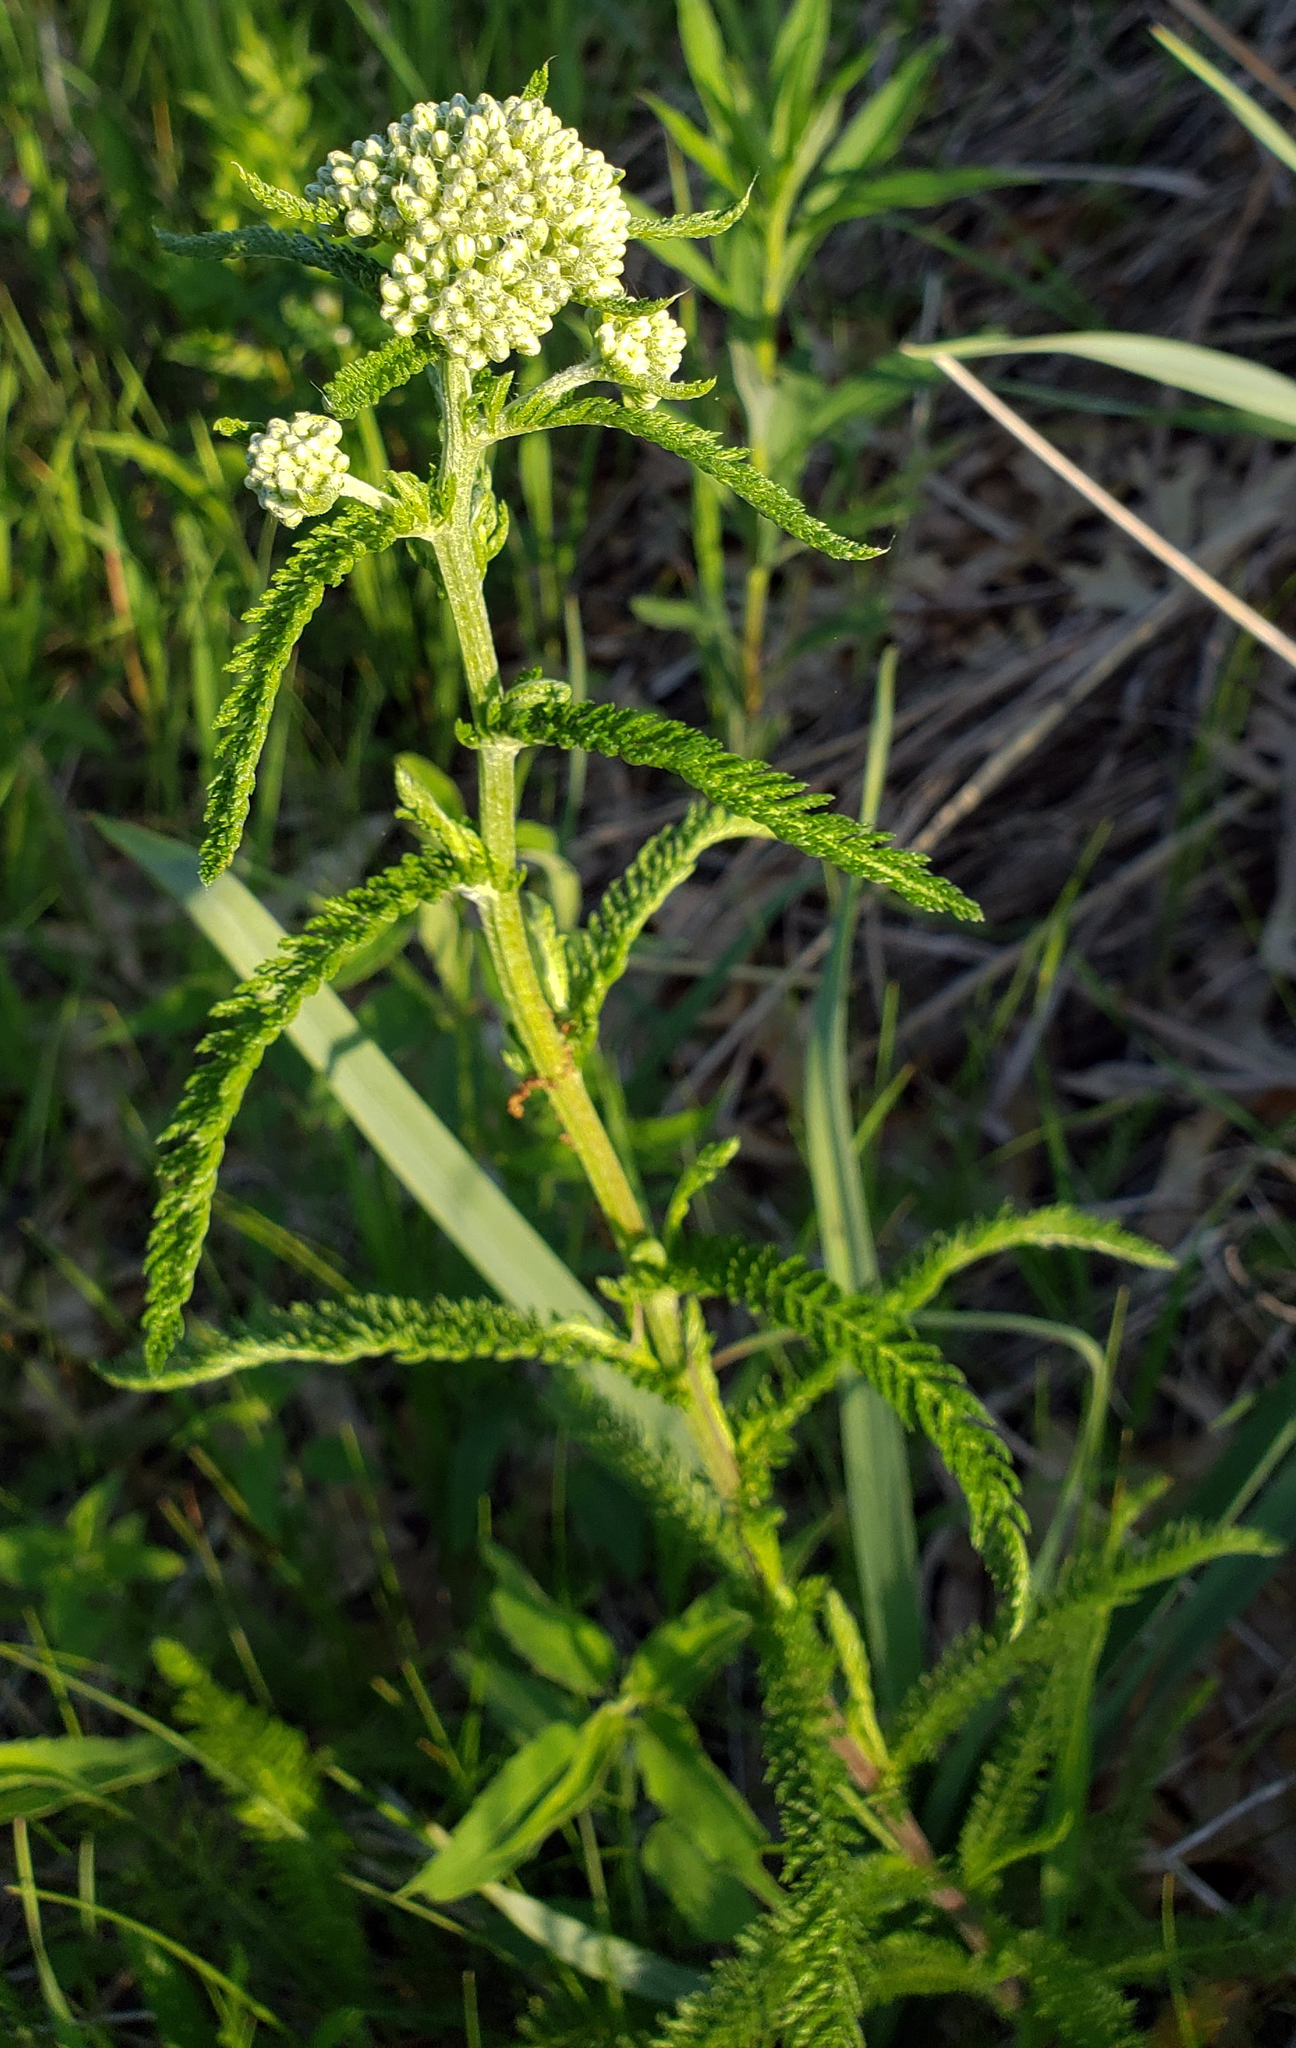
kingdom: Plantae
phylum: Tracheophyta
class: Magnoliopsida
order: Asterales
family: Asteraceae
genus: Achillea
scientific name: Achillea millefolium
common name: Yarrow
